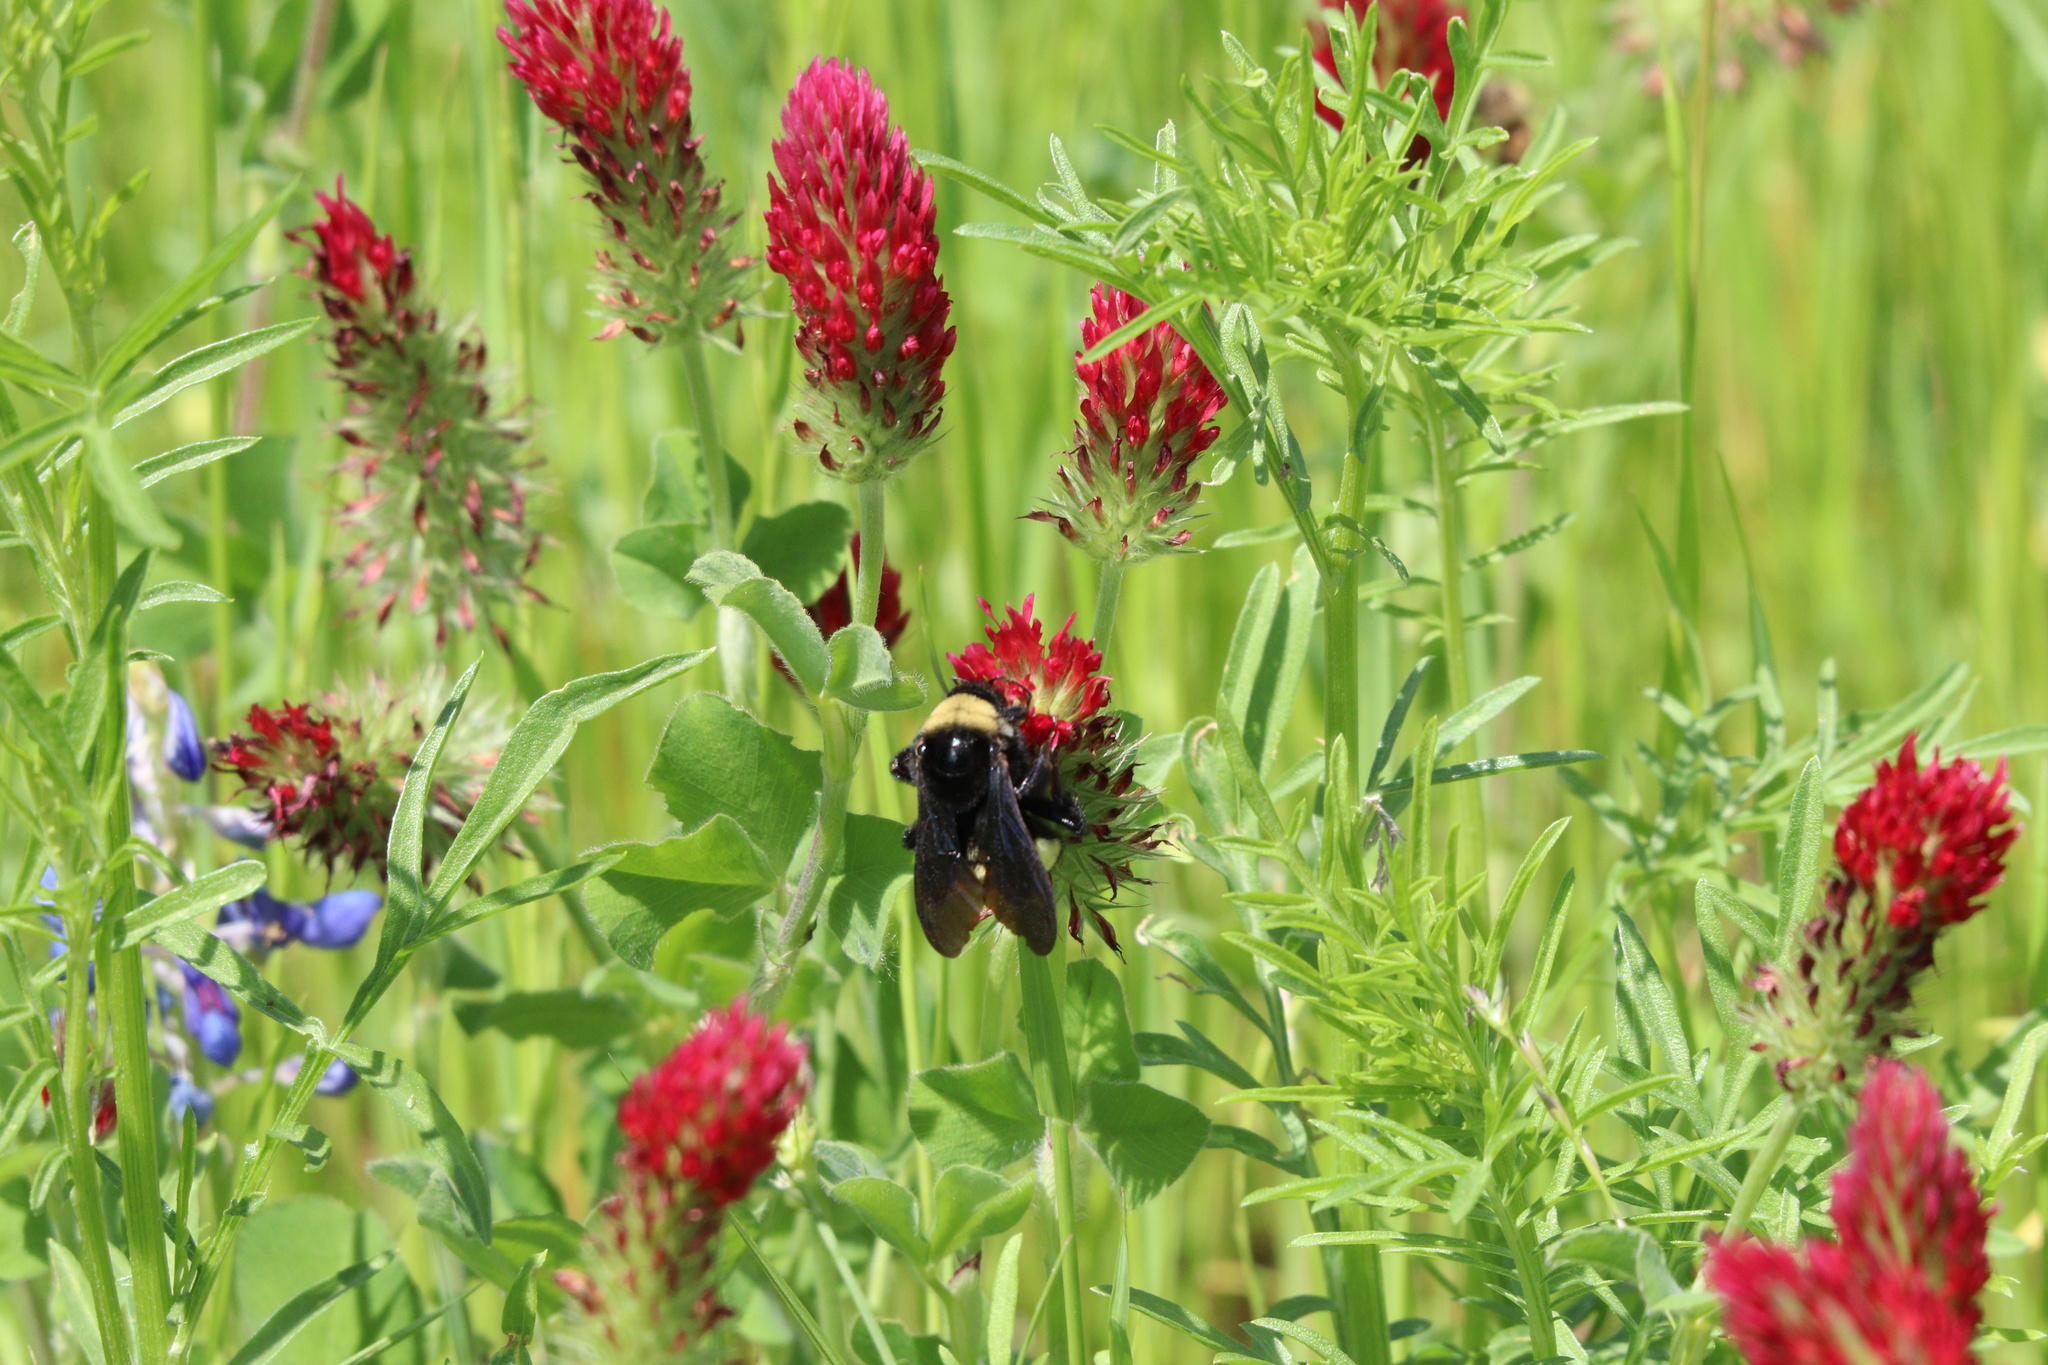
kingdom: Animalia
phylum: Arthropoda
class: Insecta
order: Hymenoptera
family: Apidae
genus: Bombus
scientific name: Bombus pensylvanicus
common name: Bumble bee
